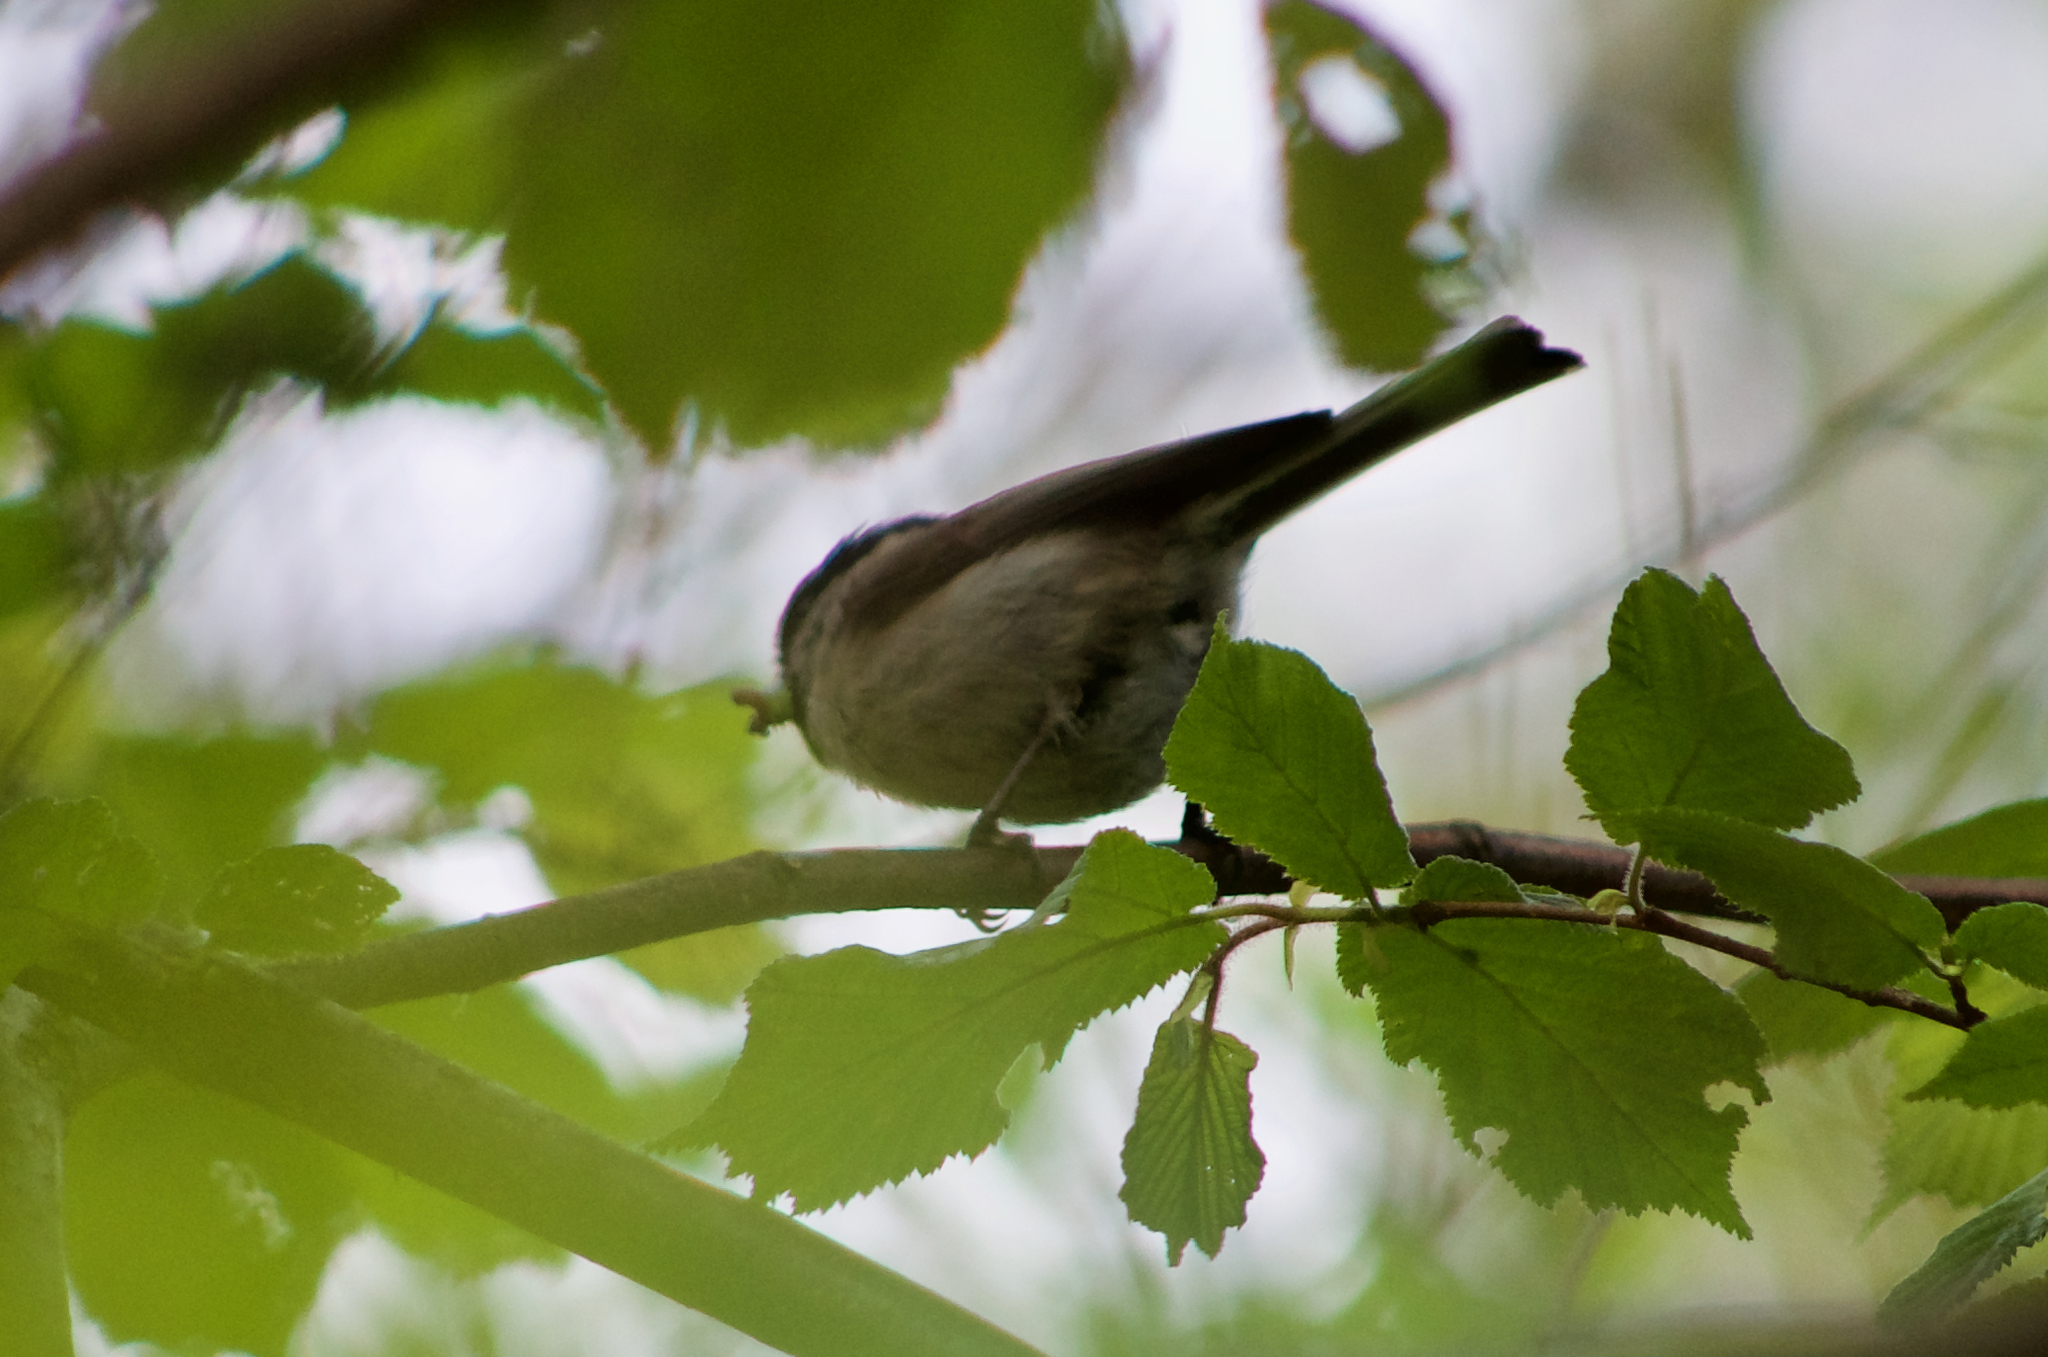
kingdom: Animalia
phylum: Chordata
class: Aves
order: Passeriformes
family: Paridae
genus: Poecile
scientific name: Poecile palustris
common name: Marsh tit
